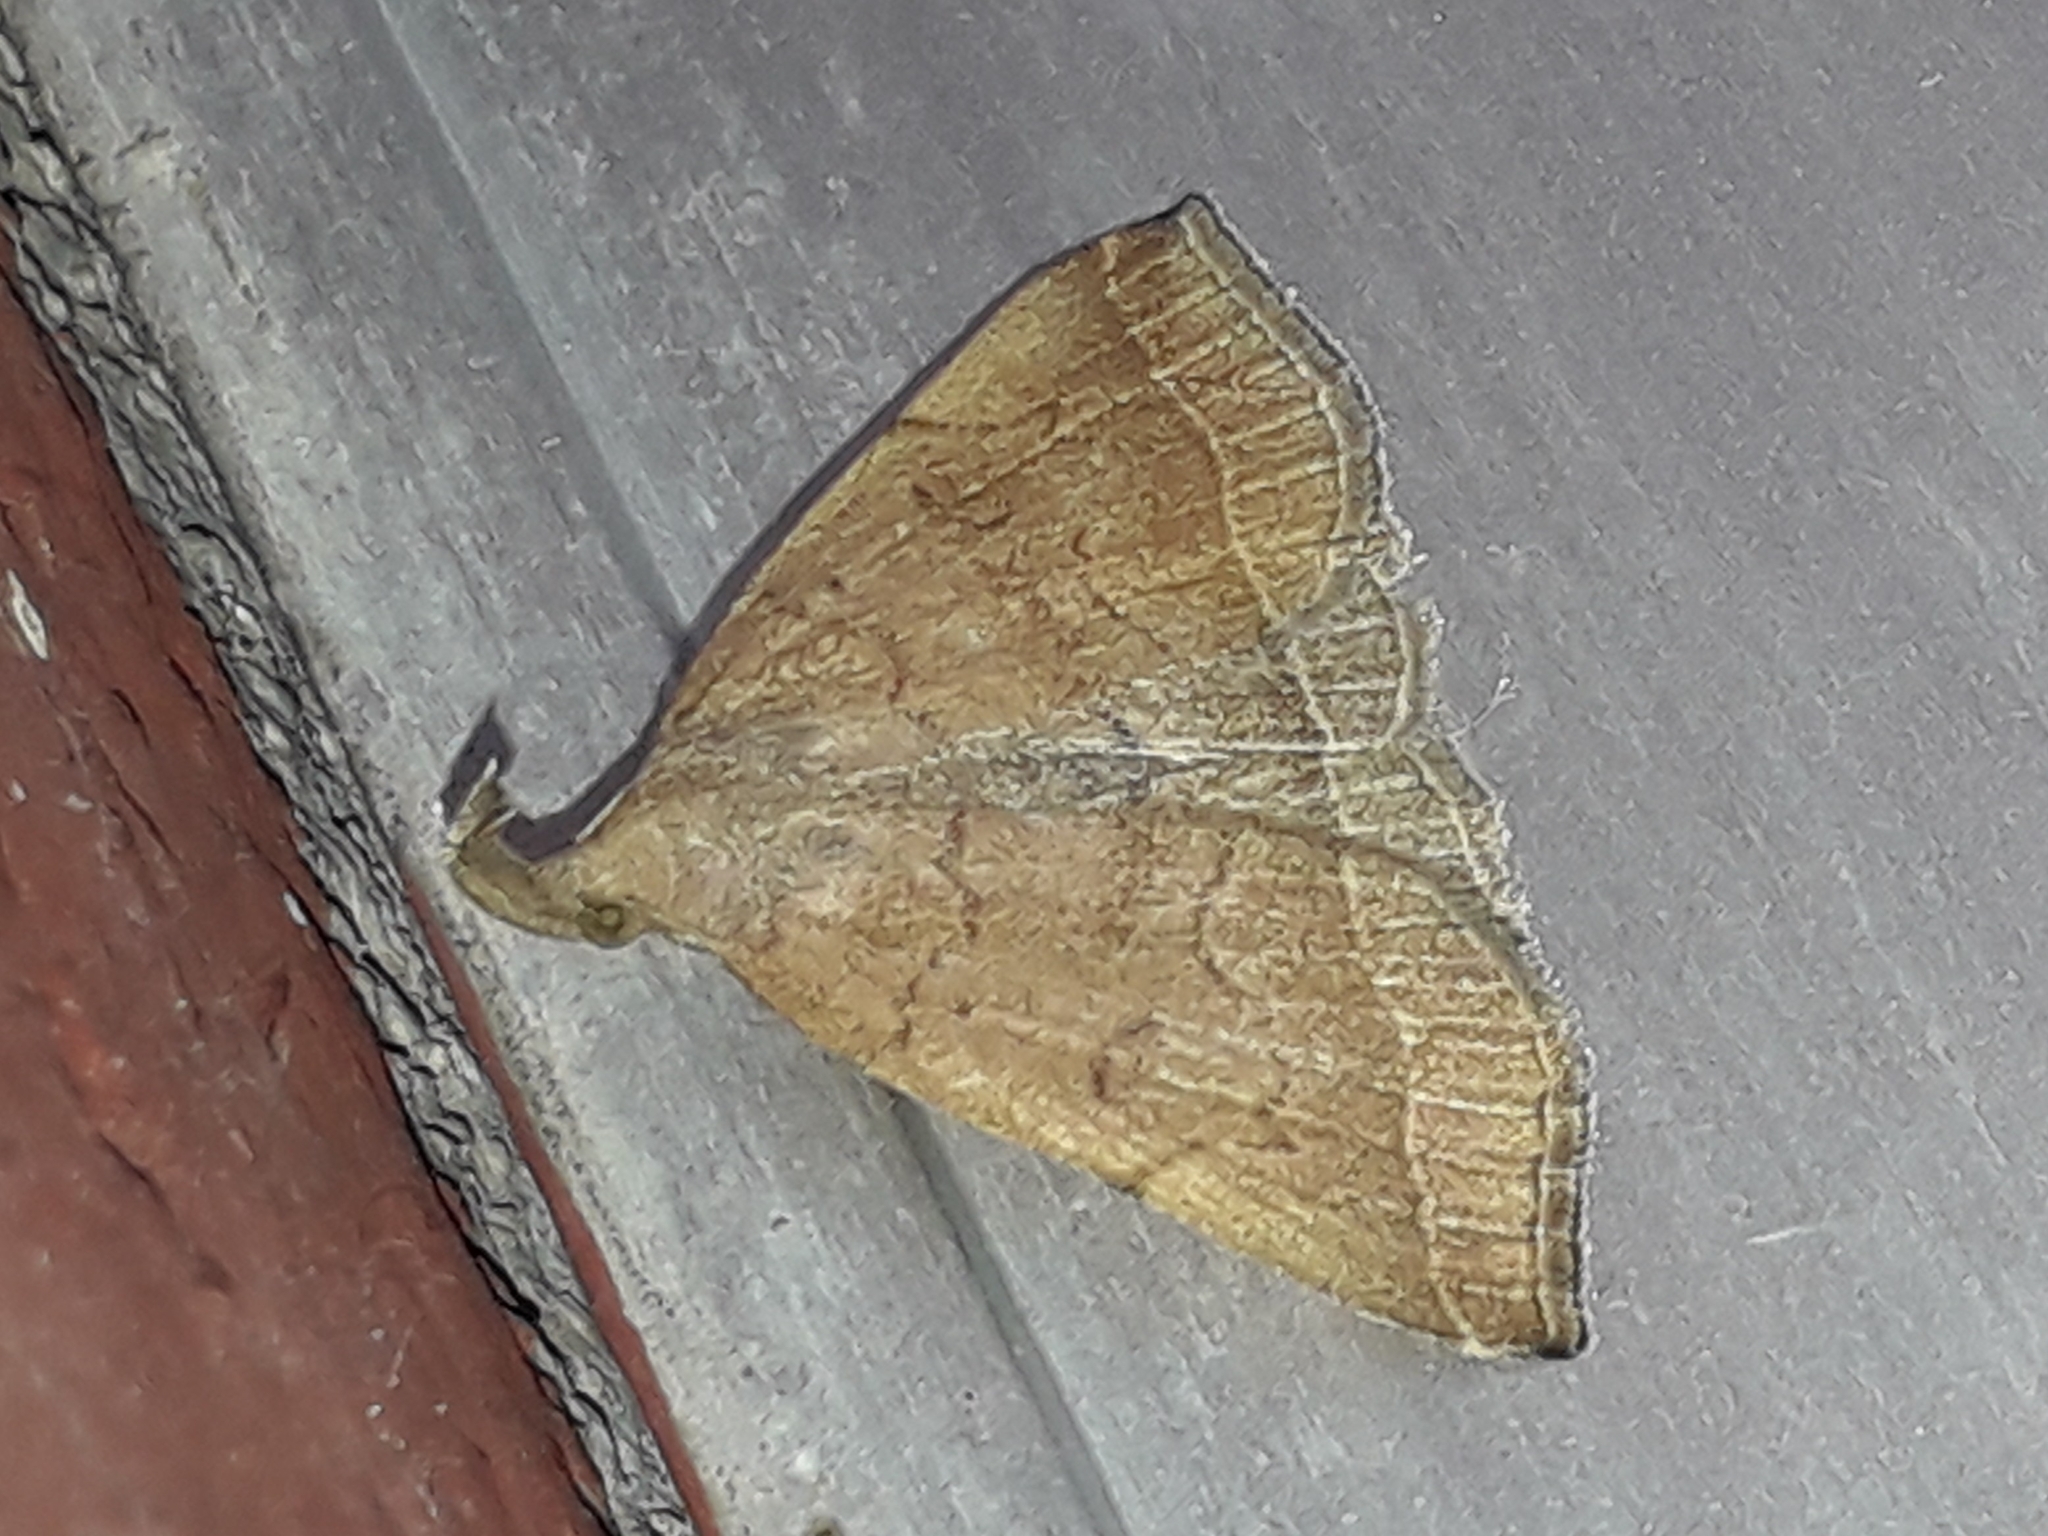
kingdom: Animalia
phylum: Arthropoda
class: Insecta
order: Lepidoptera
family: Erebidae
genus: Pechipogo
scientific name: Pechipogo plumigeralis
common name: Plumed fan-foot
